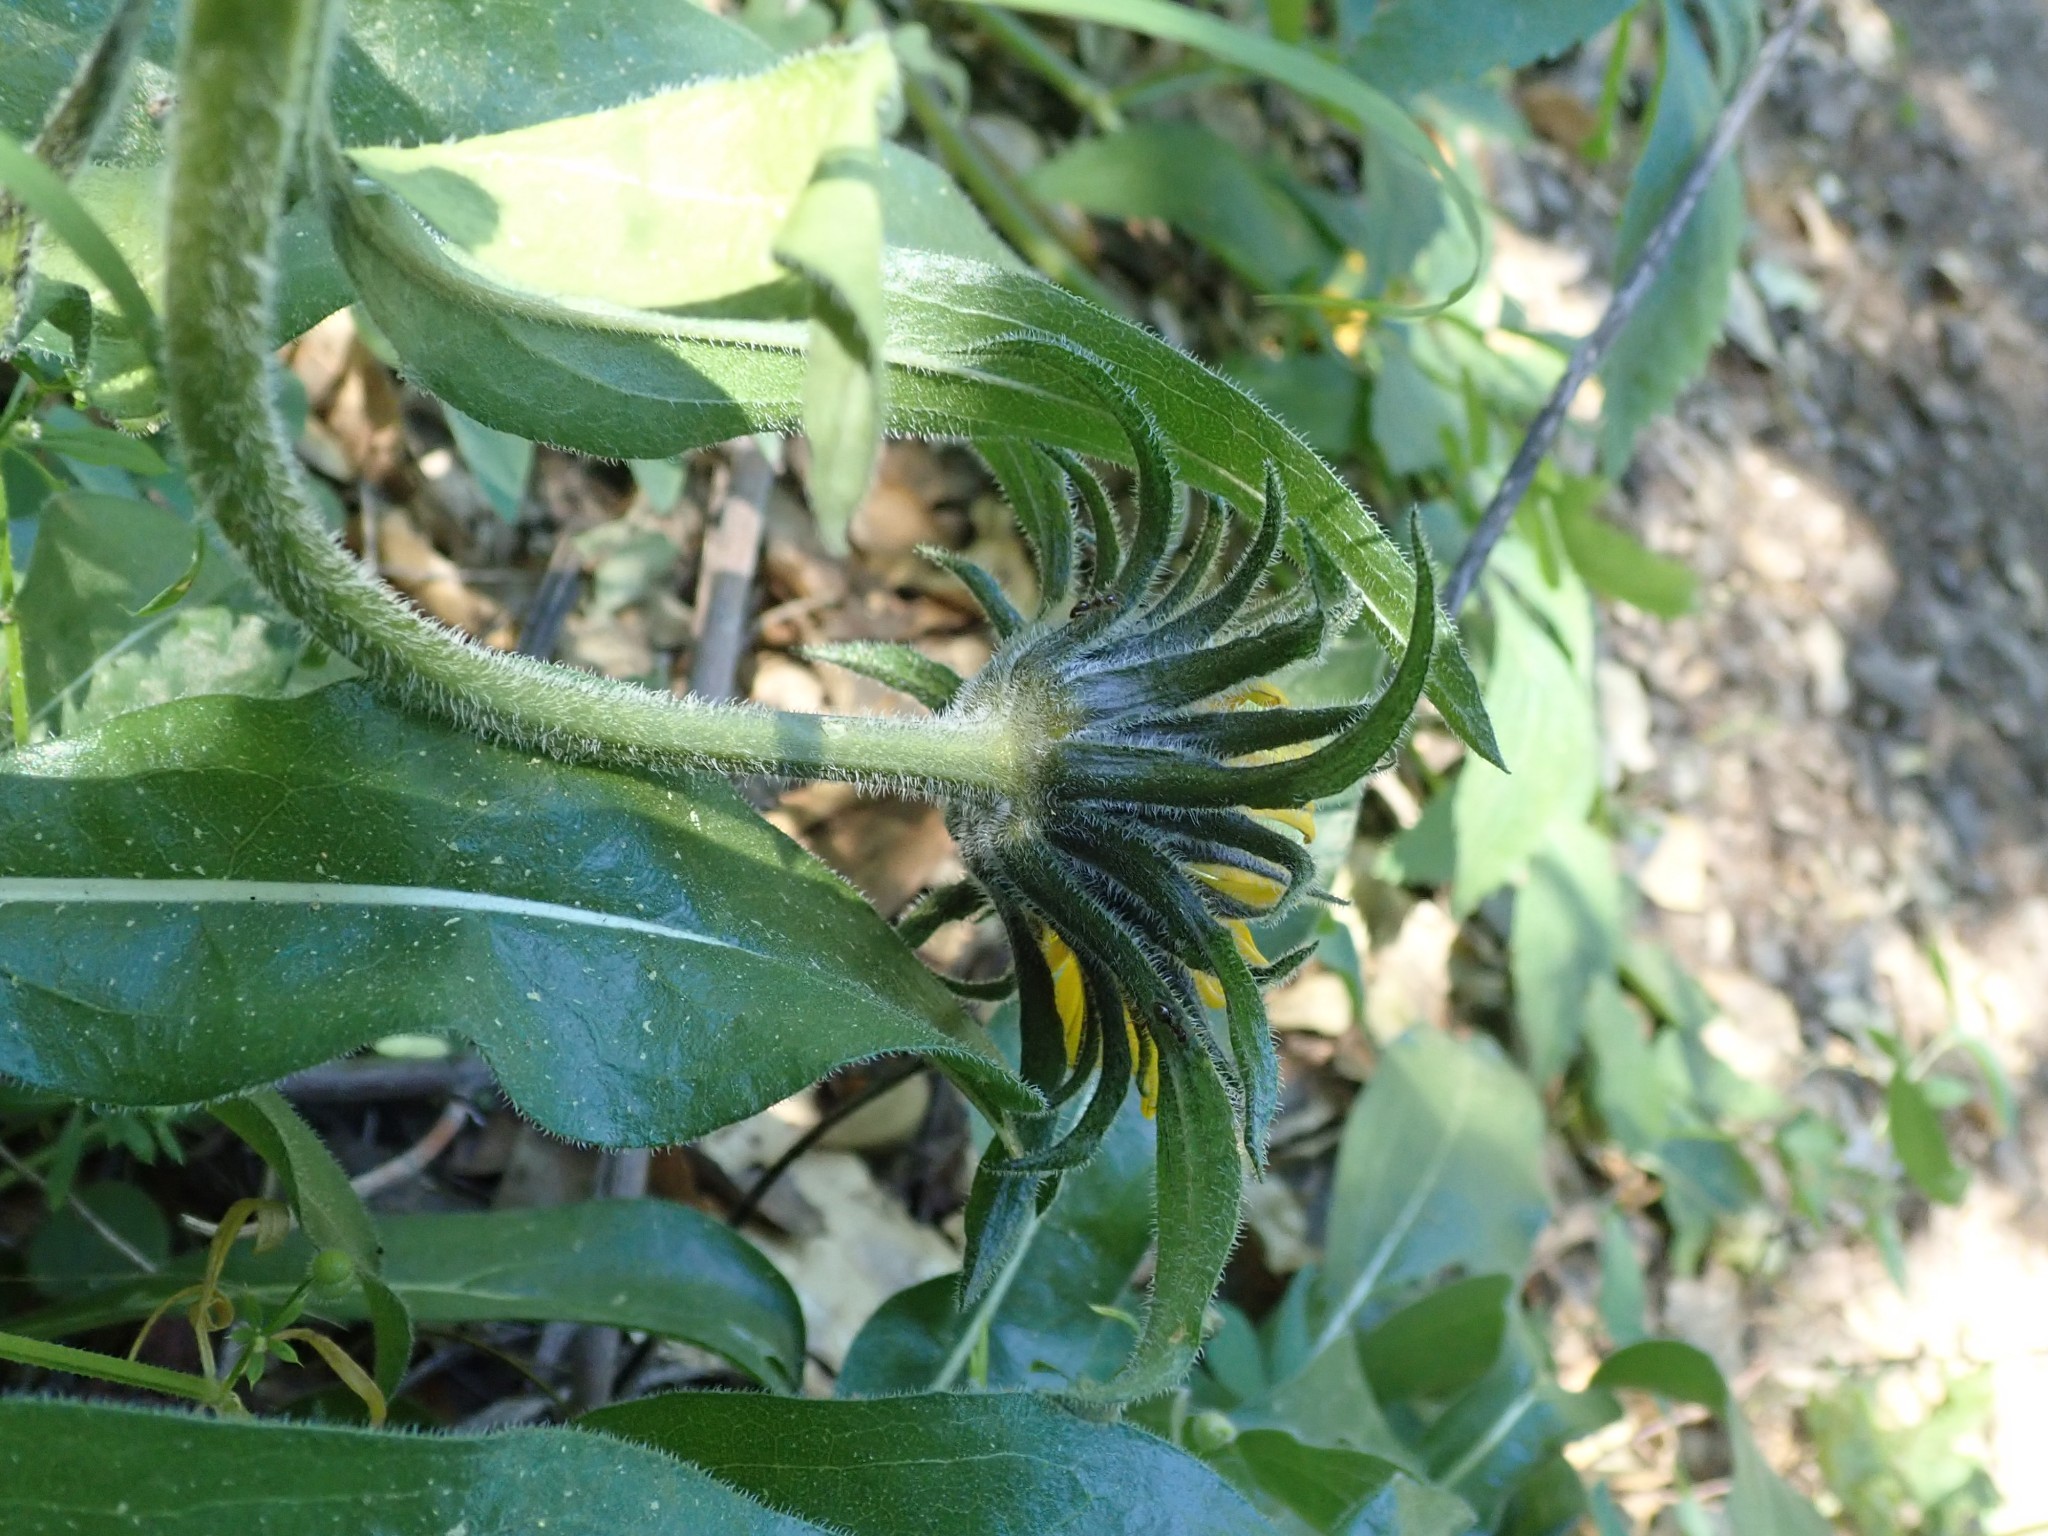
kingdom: Plantae
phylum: Tracheophyta
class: Magnoliopsida
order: Asterales
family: Asteraceae
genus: Helianthella
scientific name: Helianthella castanea
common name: Diablo helianthella
